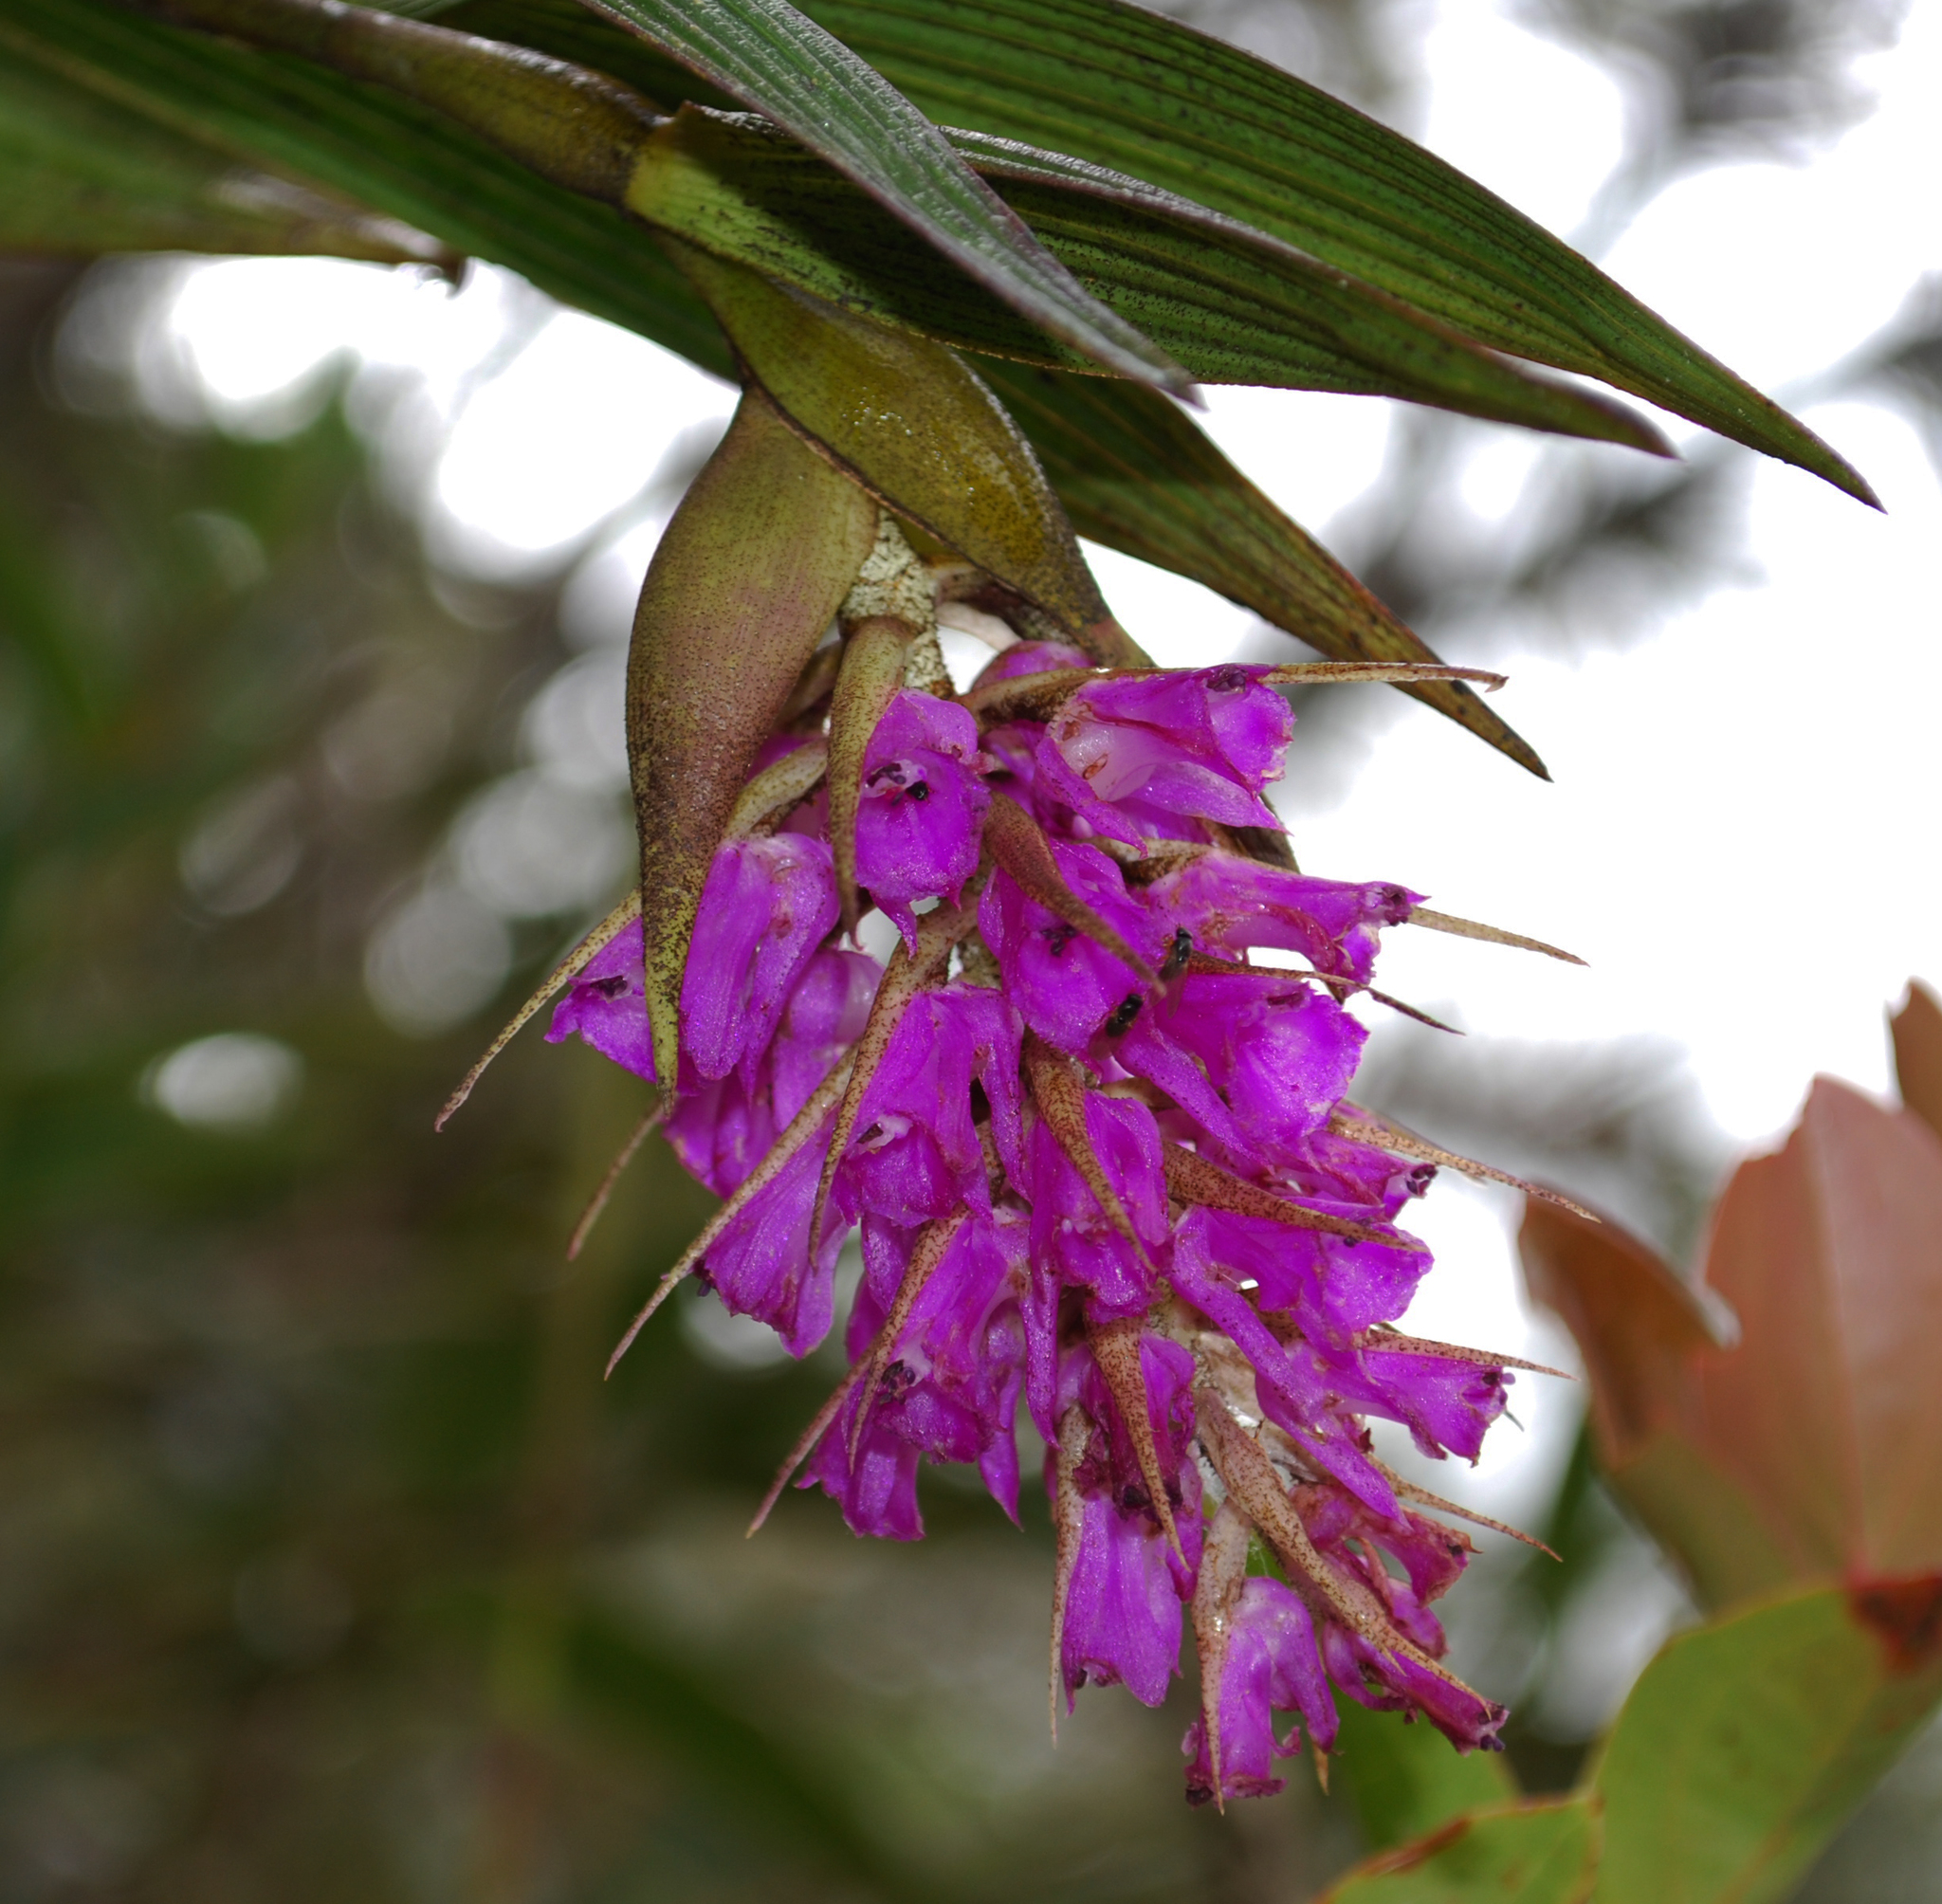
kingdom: Plantae
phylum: Tracheophyta
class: Liliopsida
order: Asparagales
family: Orchidaceae
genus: Elleanthus
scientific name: Elleanthus maculatus
